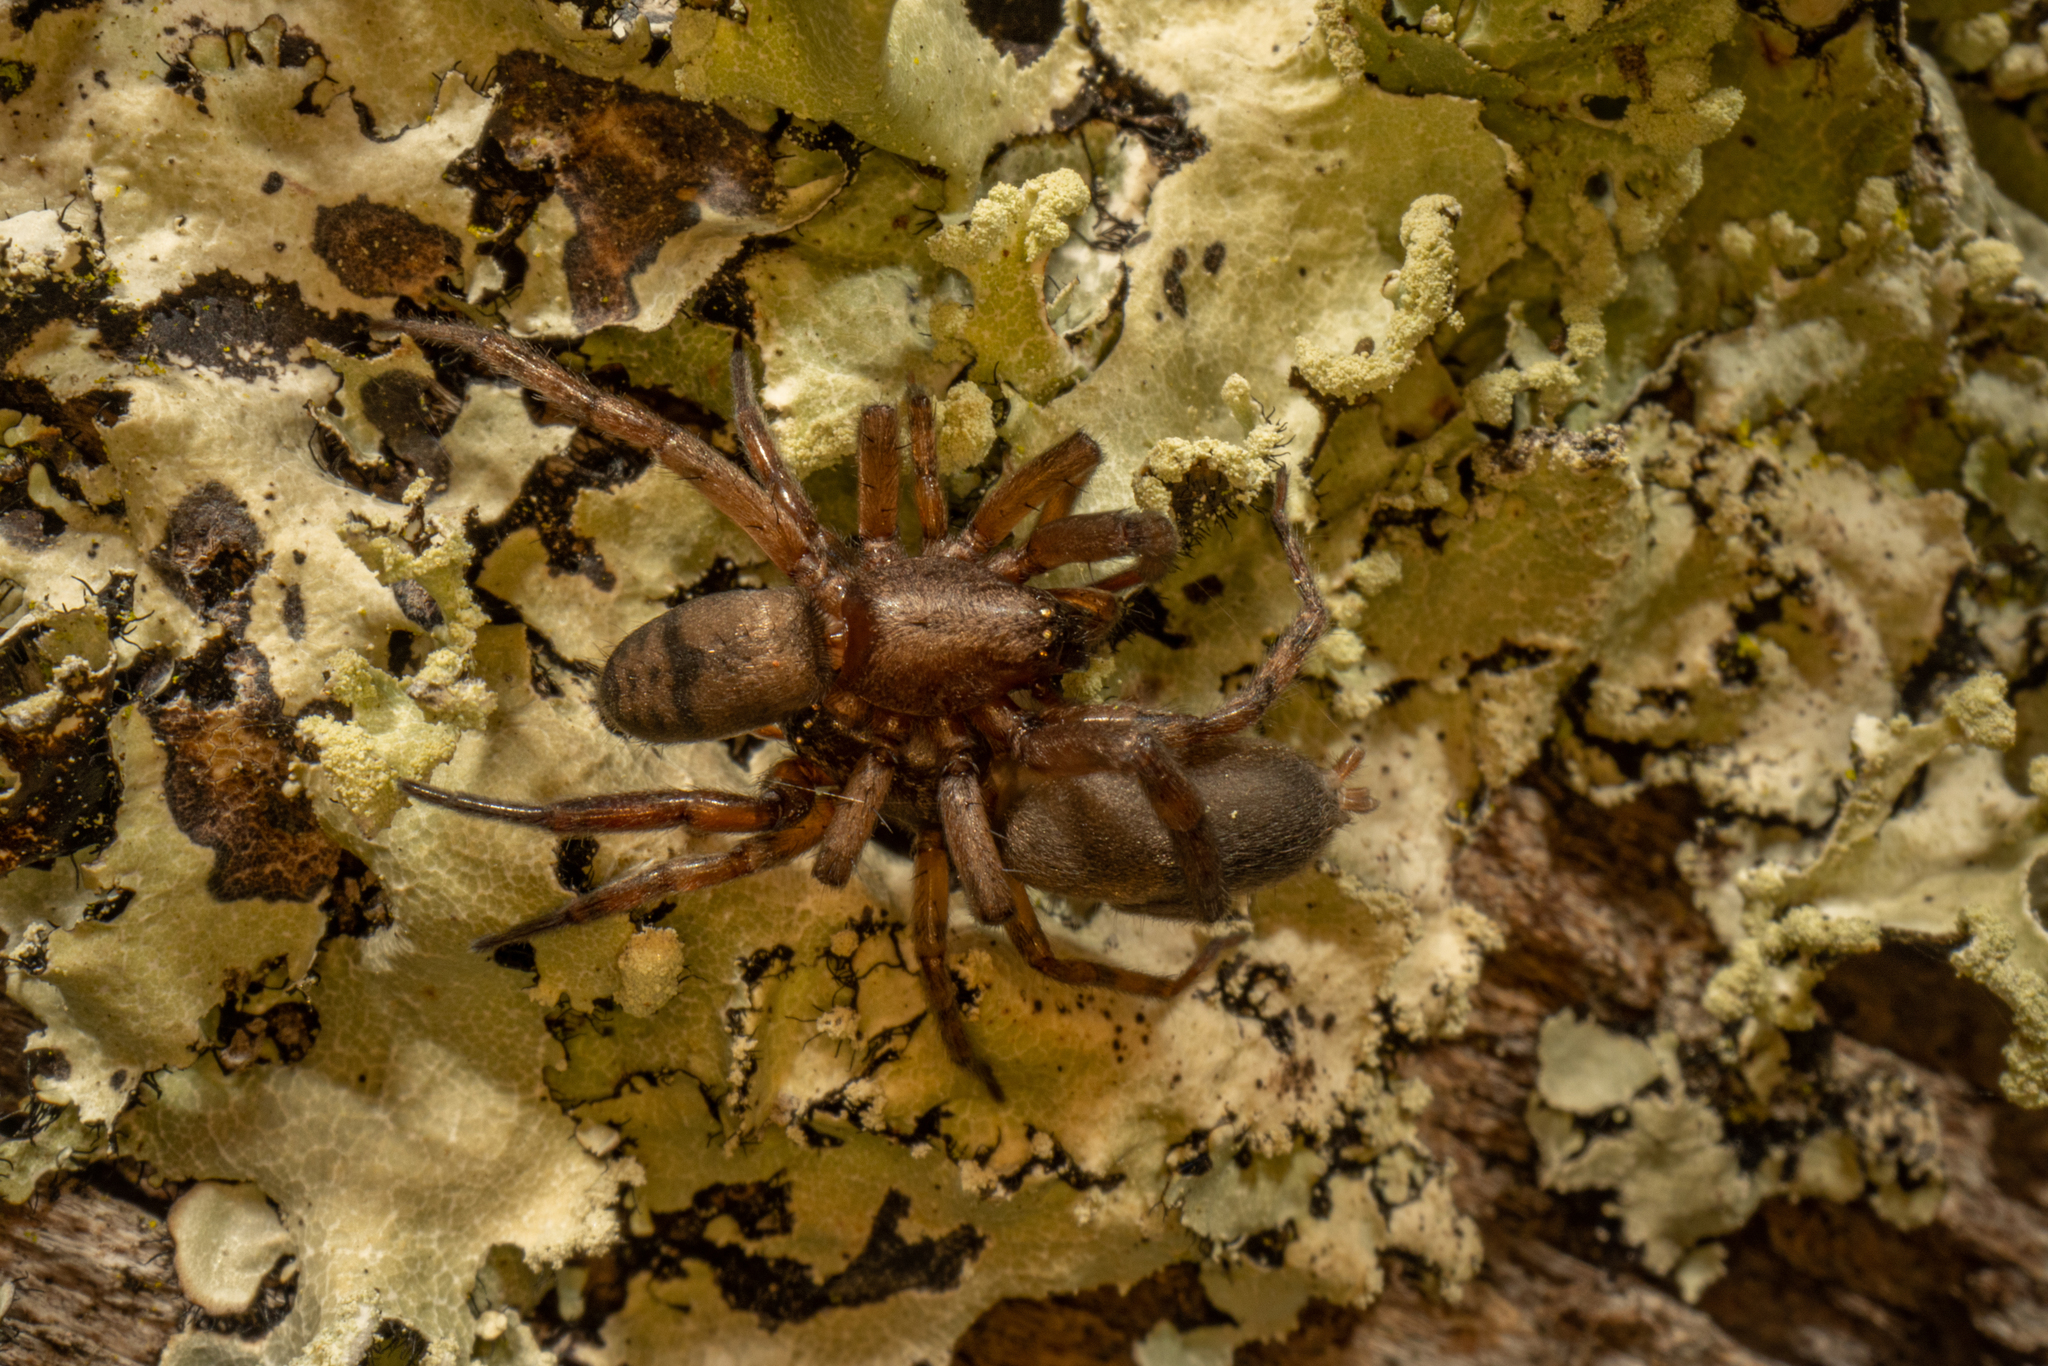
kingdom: Animalia
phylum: Arthropoda
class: Arachnida
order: Araneae
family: Gnaphosidae
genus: Intruda
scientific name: Intruda signata
